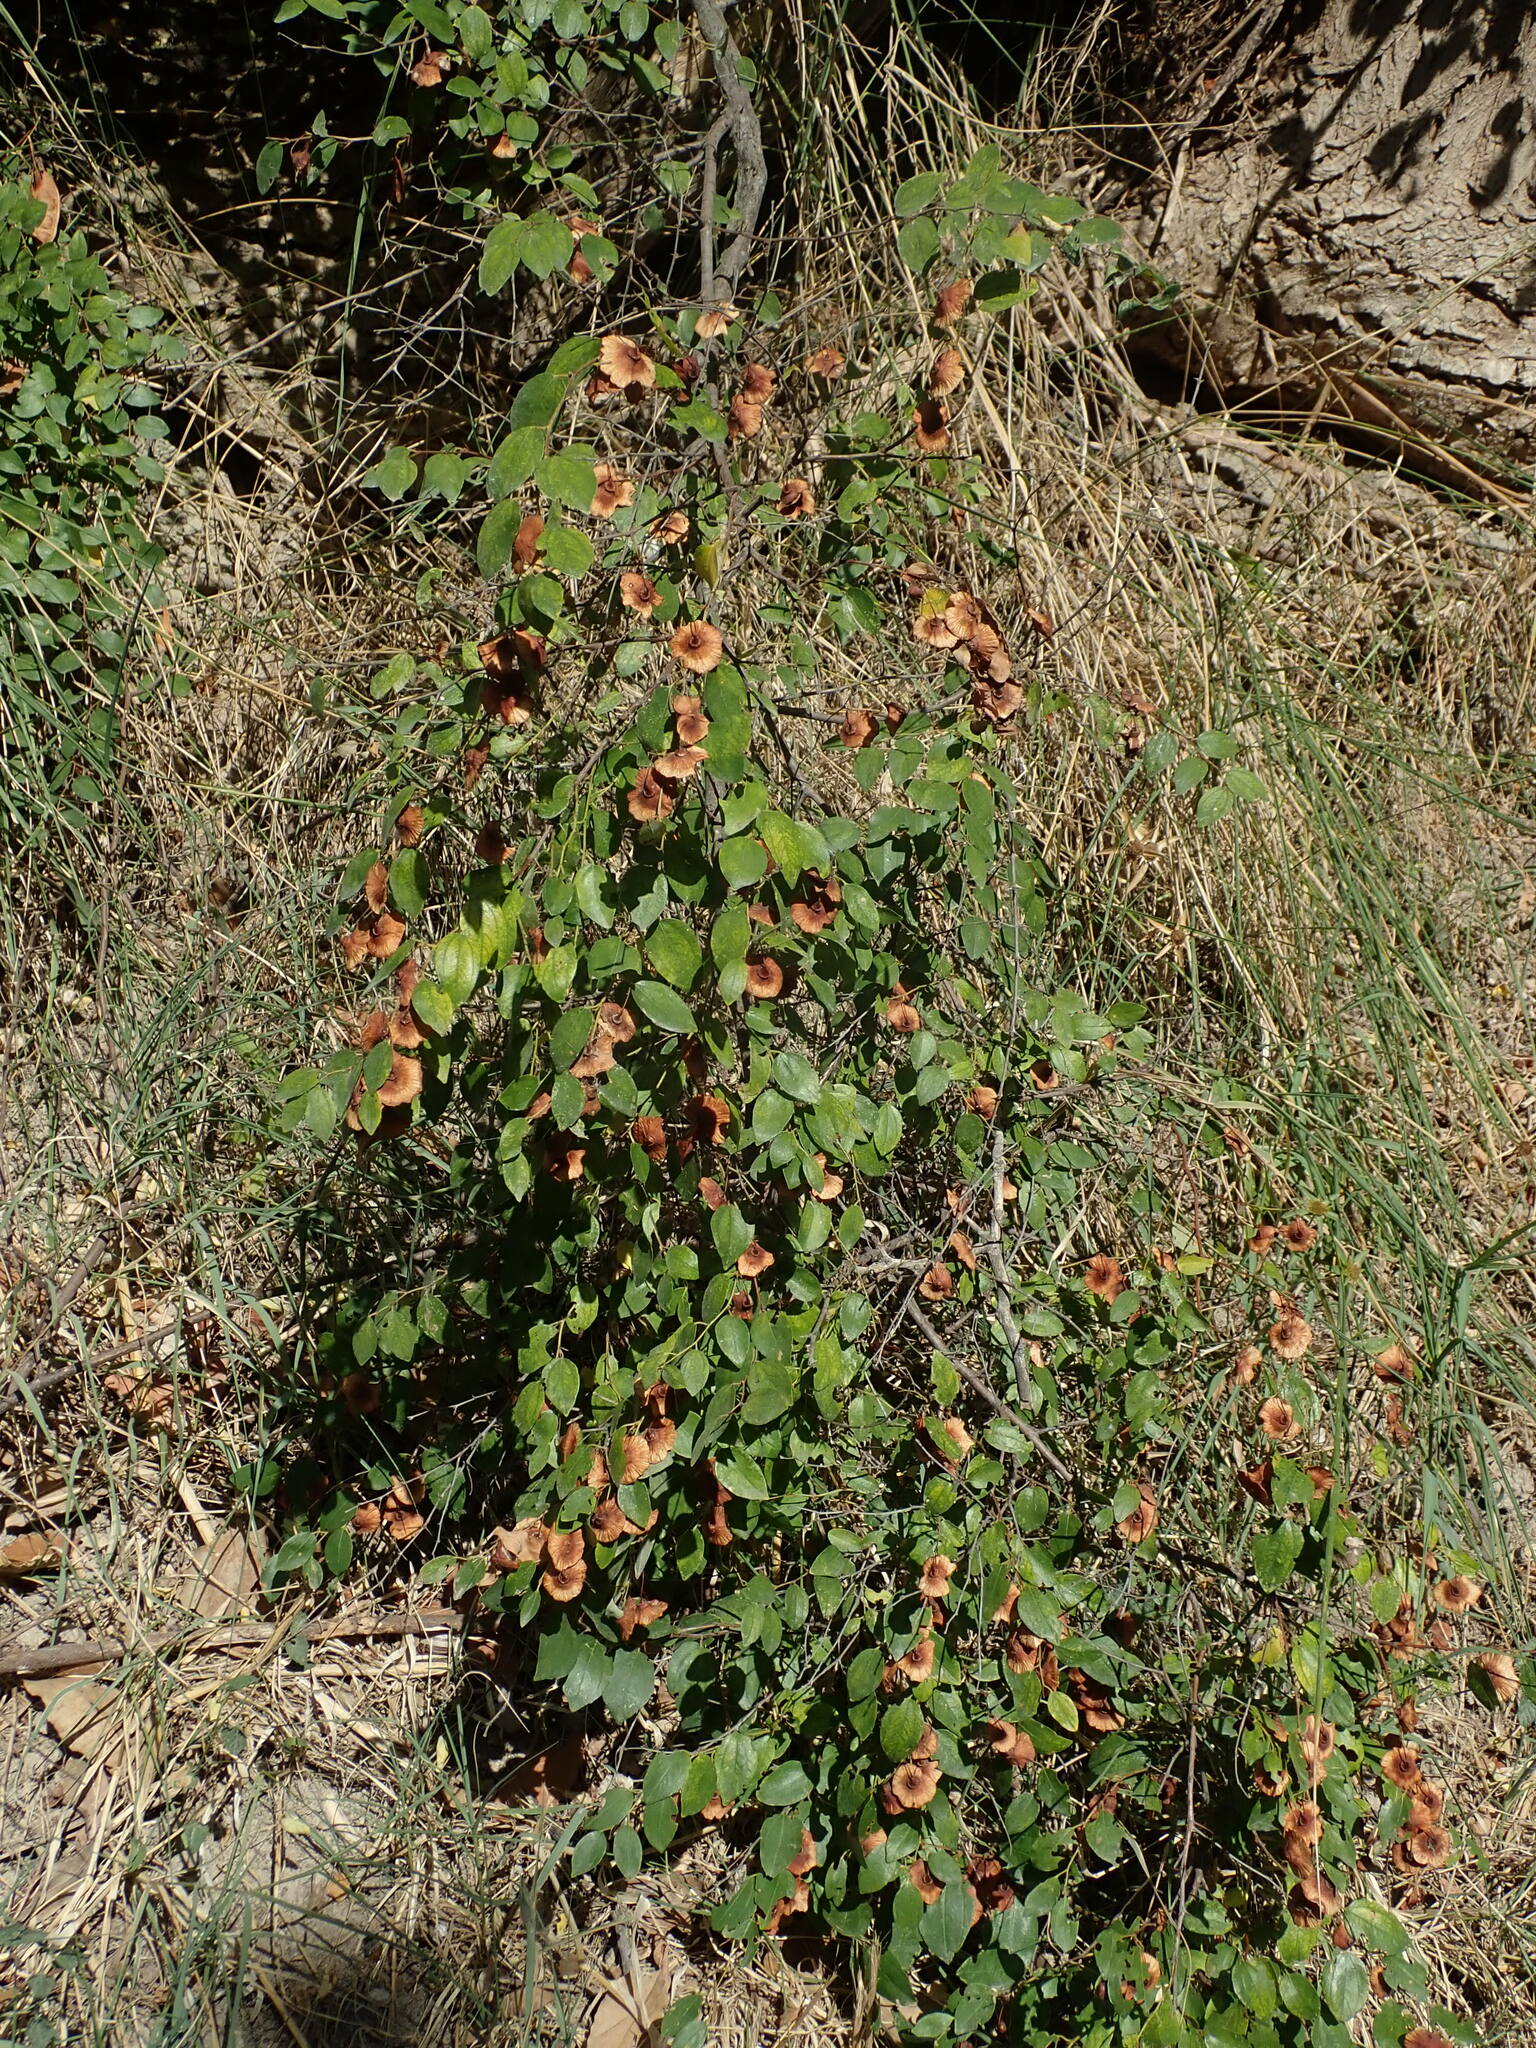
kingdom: Plantae
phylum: Tracheophyta
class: Magnoliopsida
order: Rosales
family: Rhamnaceae
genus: Paliurus
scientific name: Paliurus spina-christi
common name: Jeruselem thorn
